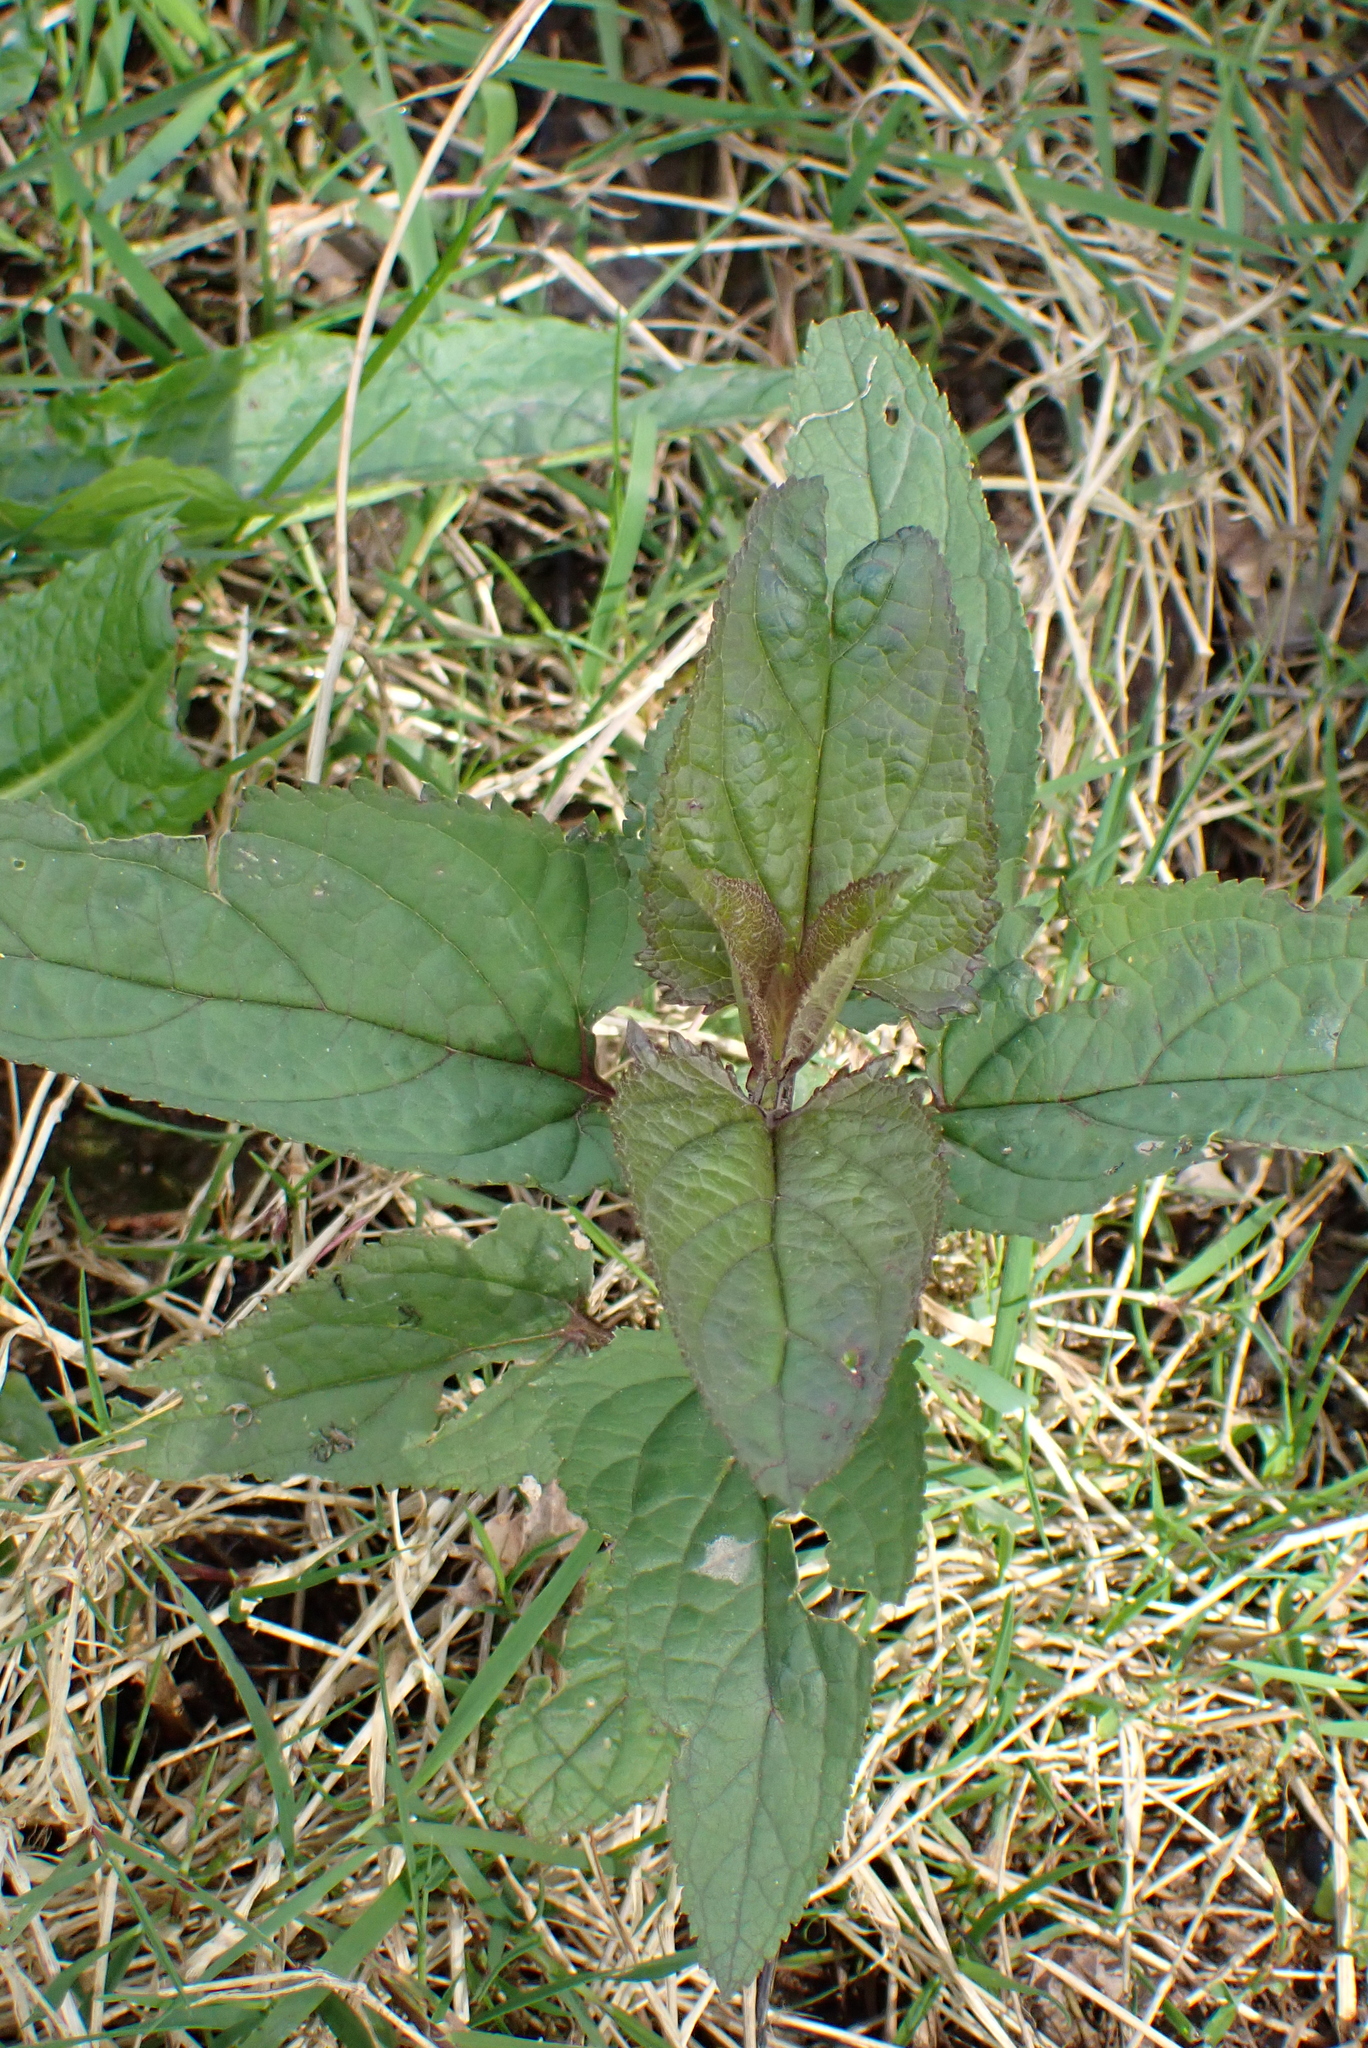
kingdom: Plantae
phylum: Tracheophyta
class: Magnoliopsida
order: Lamiales
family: Scrophulariaceae
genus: Scrophularia
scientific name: Scrophularia nodosa
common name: Common figwort
